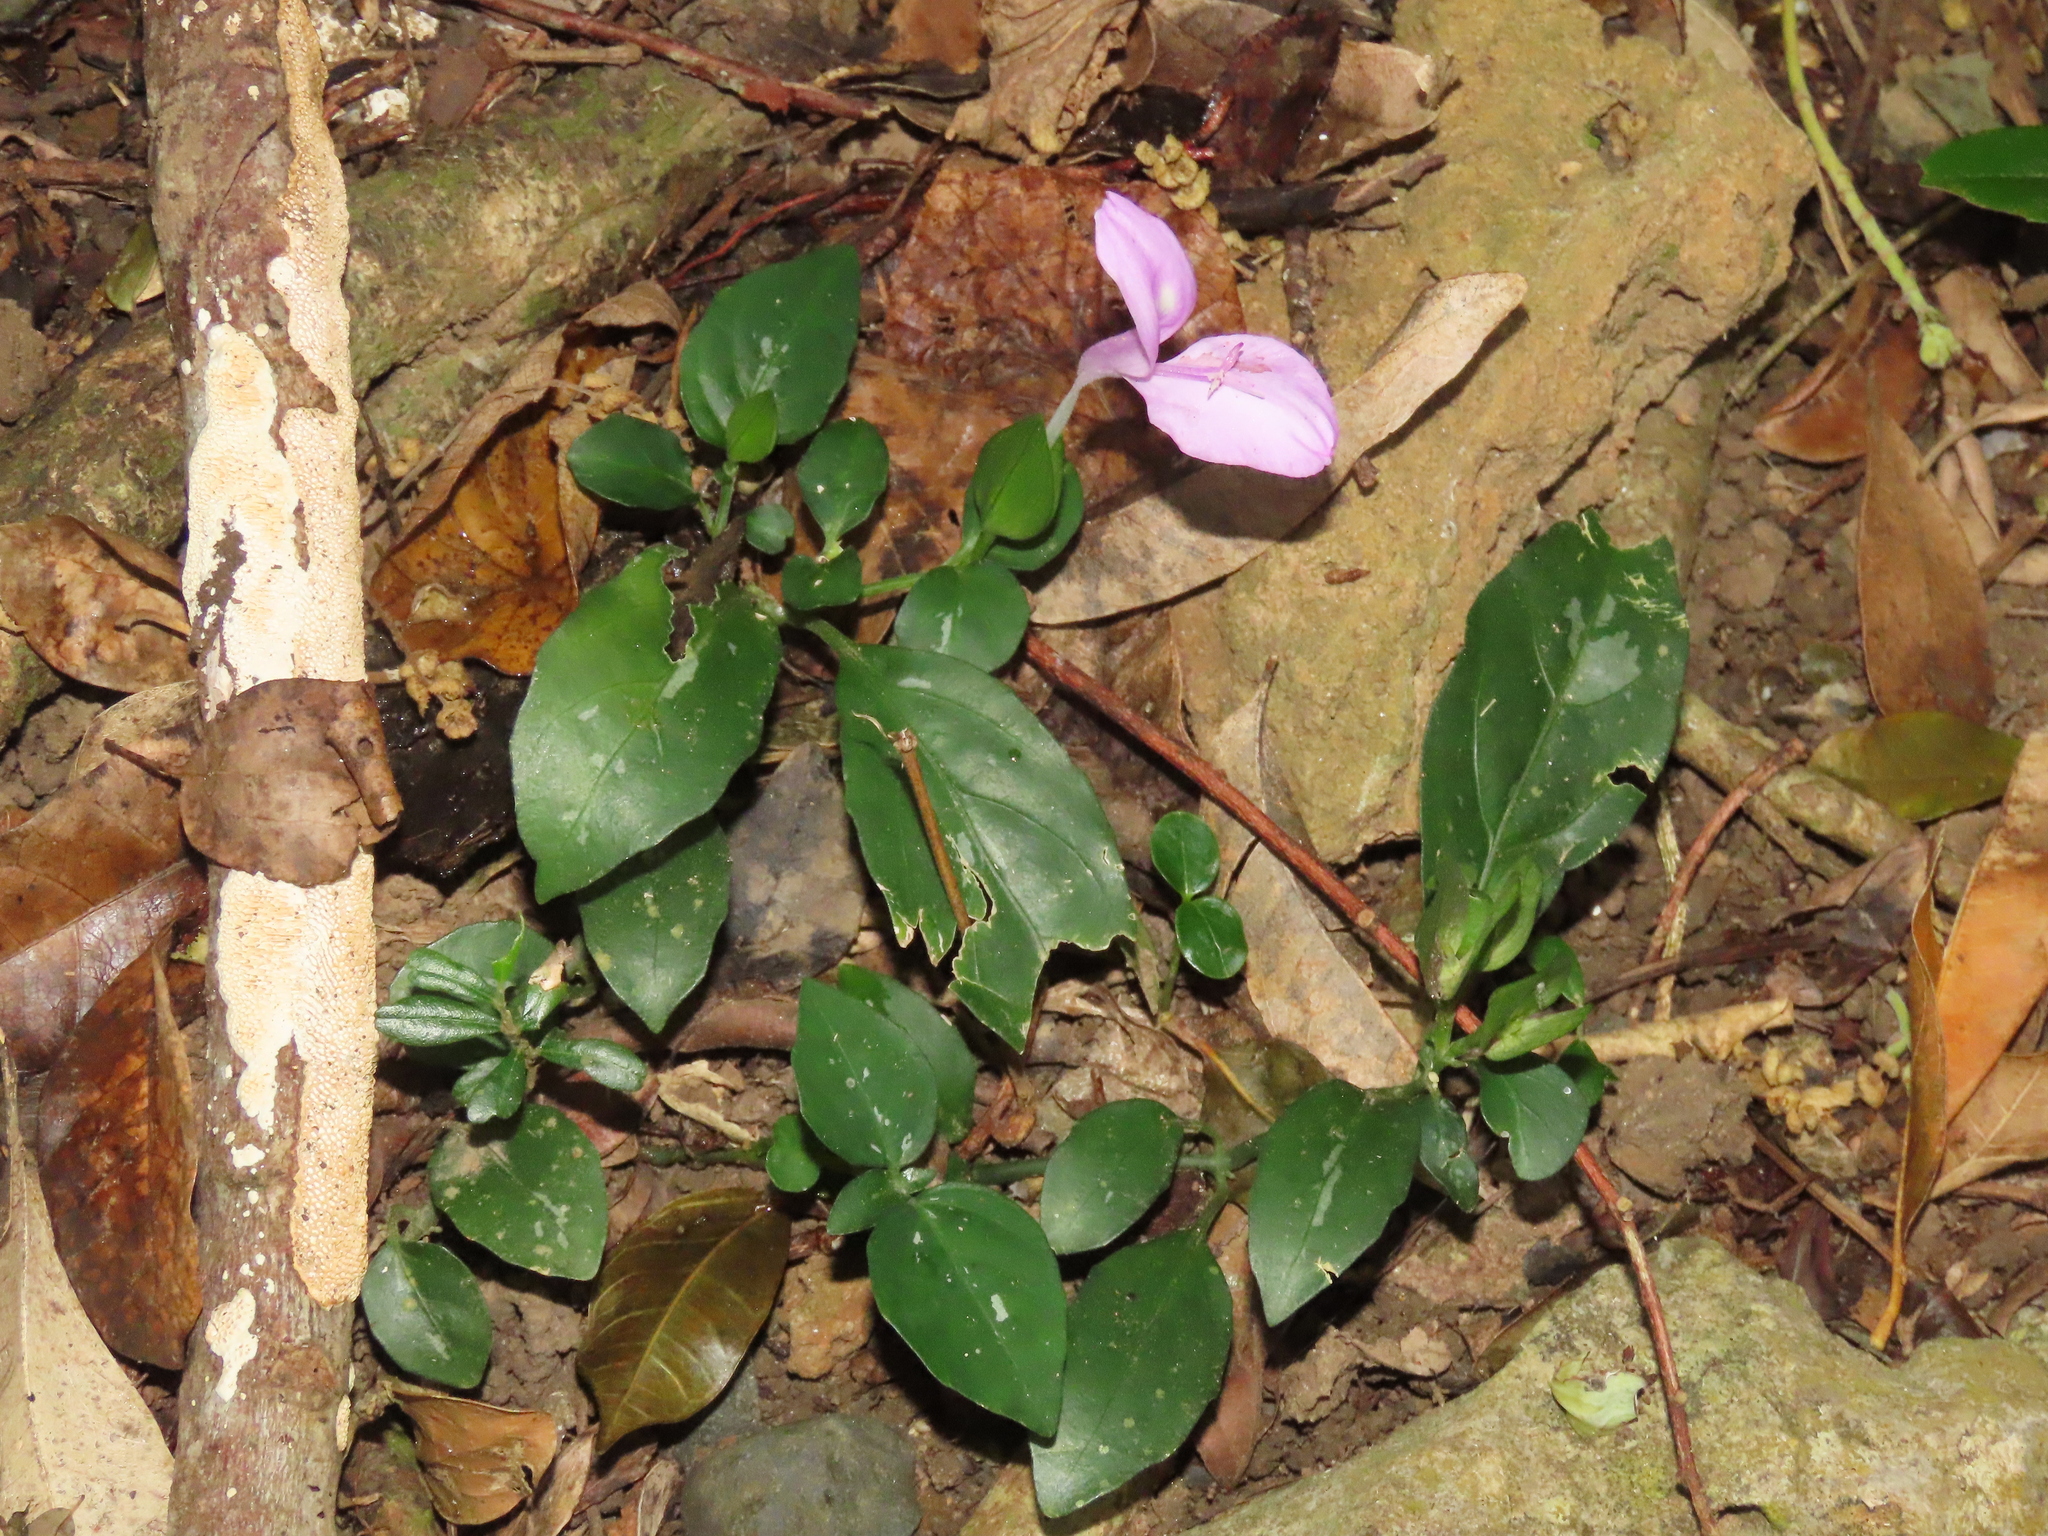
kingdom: Plantae
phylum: Tracheophyta
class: Magnoliopsida
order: Lamiales
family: Acanthaceae
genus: Dicliptera
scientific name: Dicliptera tinctoria
